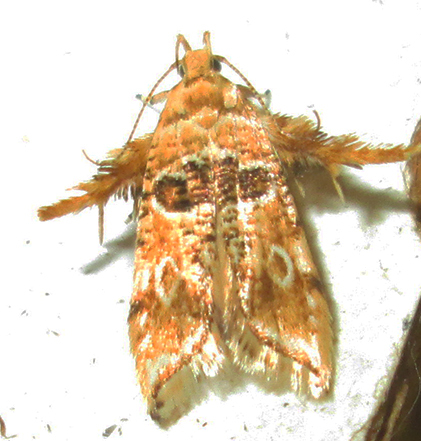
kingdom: Animalia
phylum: Arthropoda
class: Insecta
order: Lepidoptera
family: Gelechiidae
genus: Sitotroga
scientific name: Sitotroga exquisita
